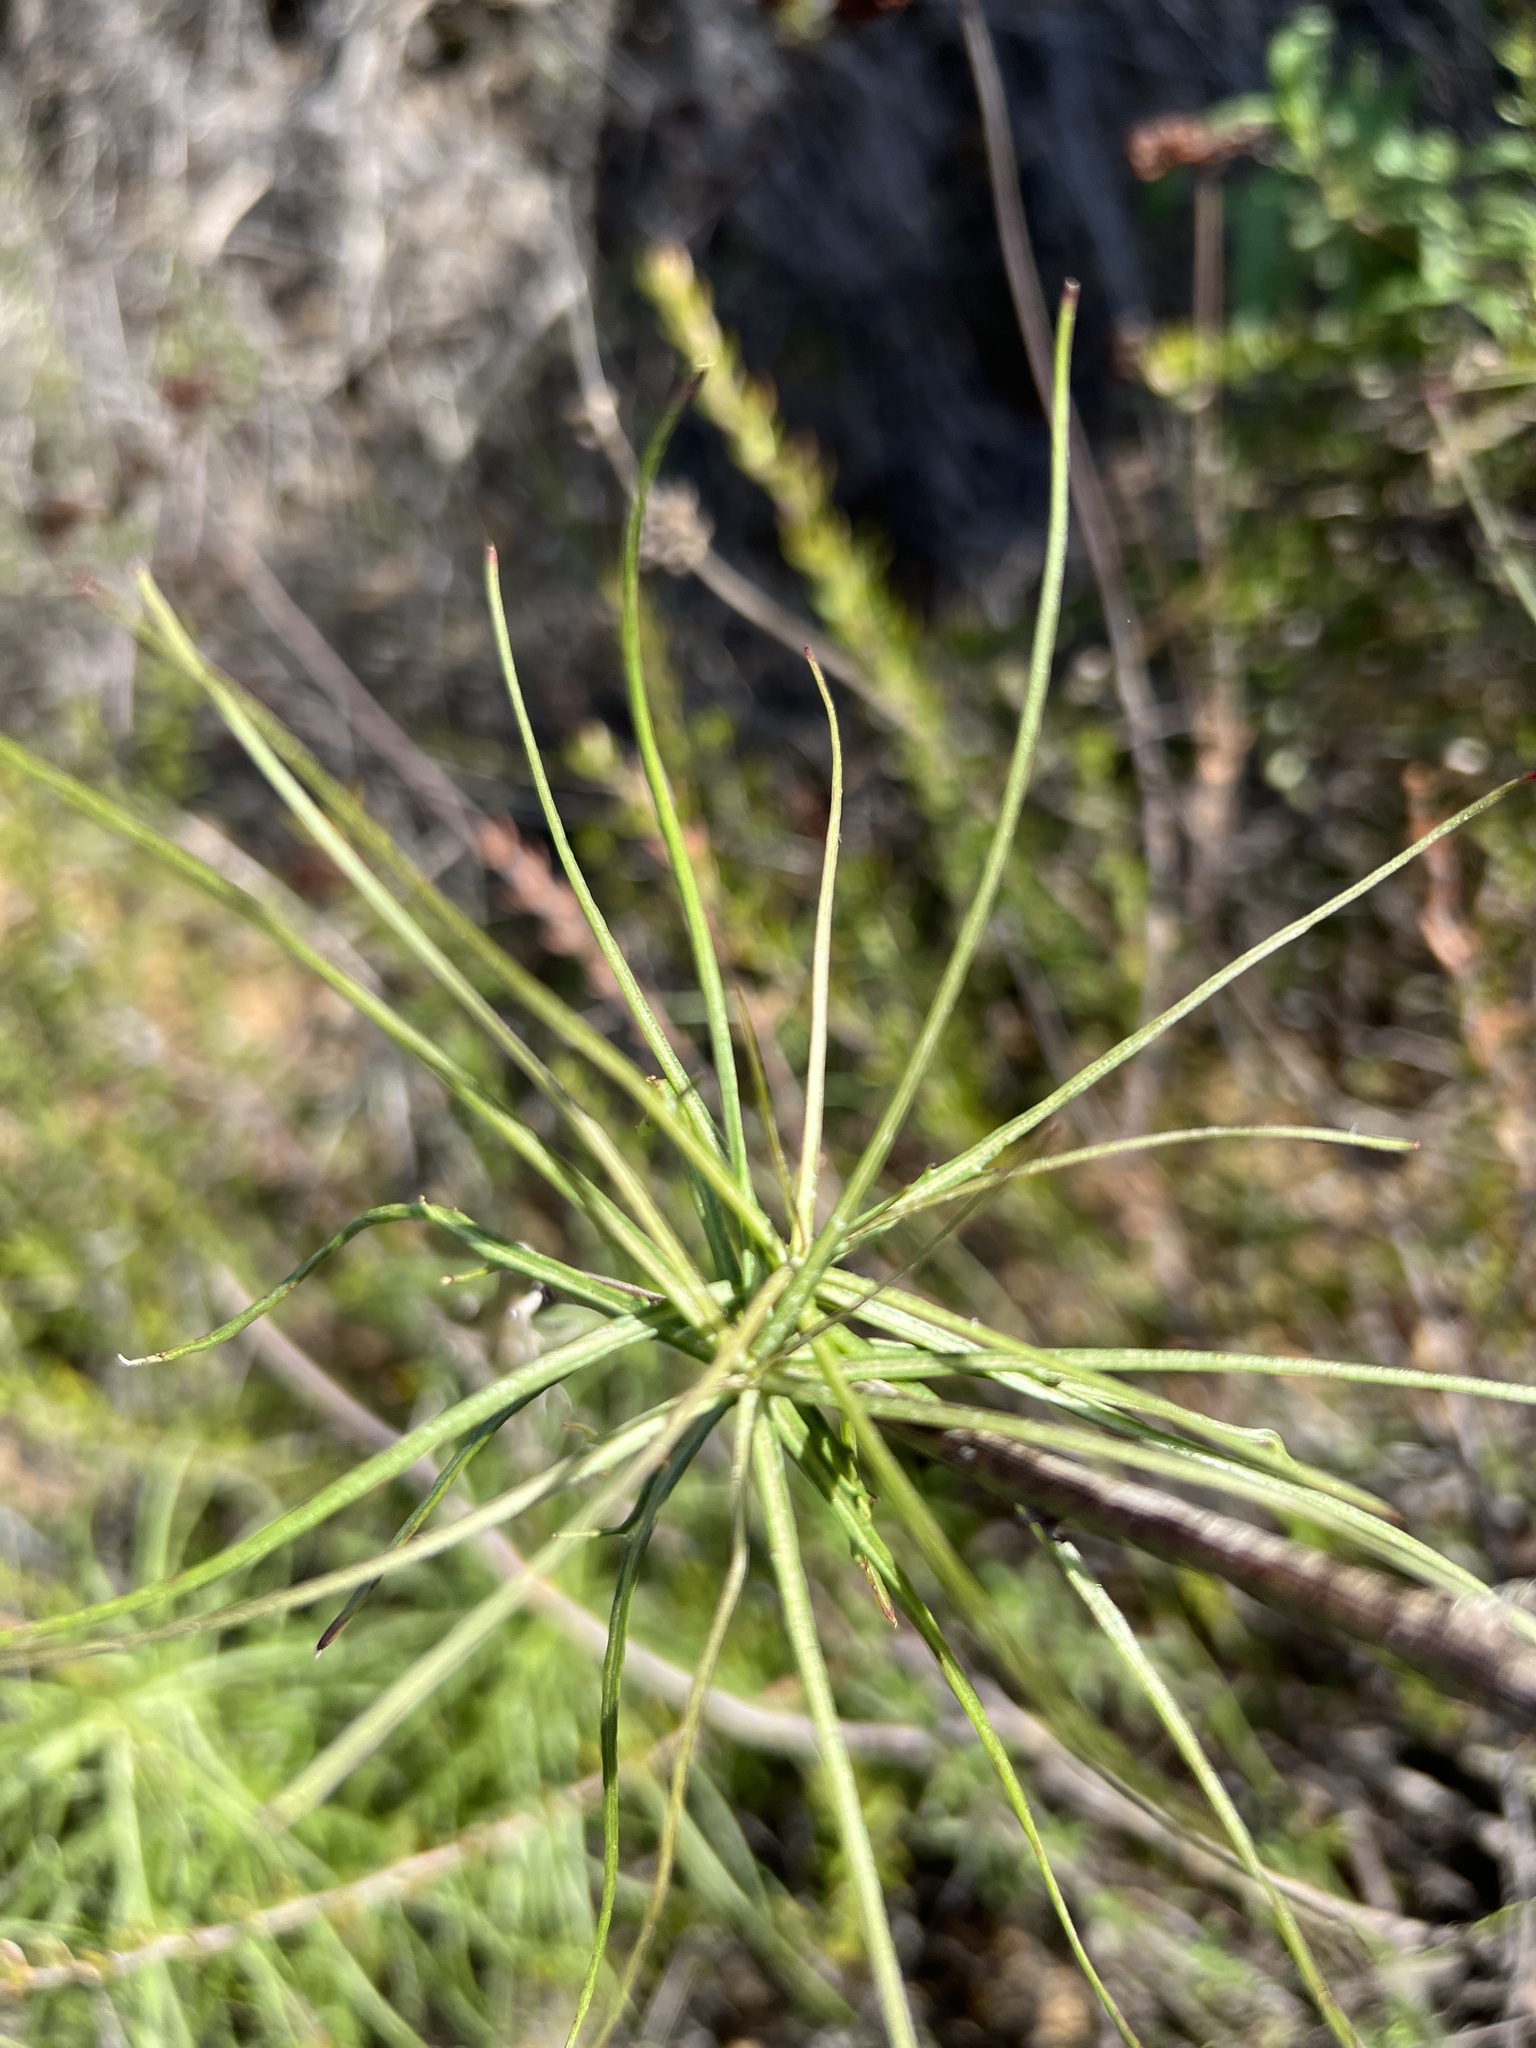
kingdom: Plantae
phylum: Tracheophyta
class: Magnoliopsida
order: Asterales
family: Asteraceae
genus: Malacothrix
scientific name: Malacothrix saxatilis
